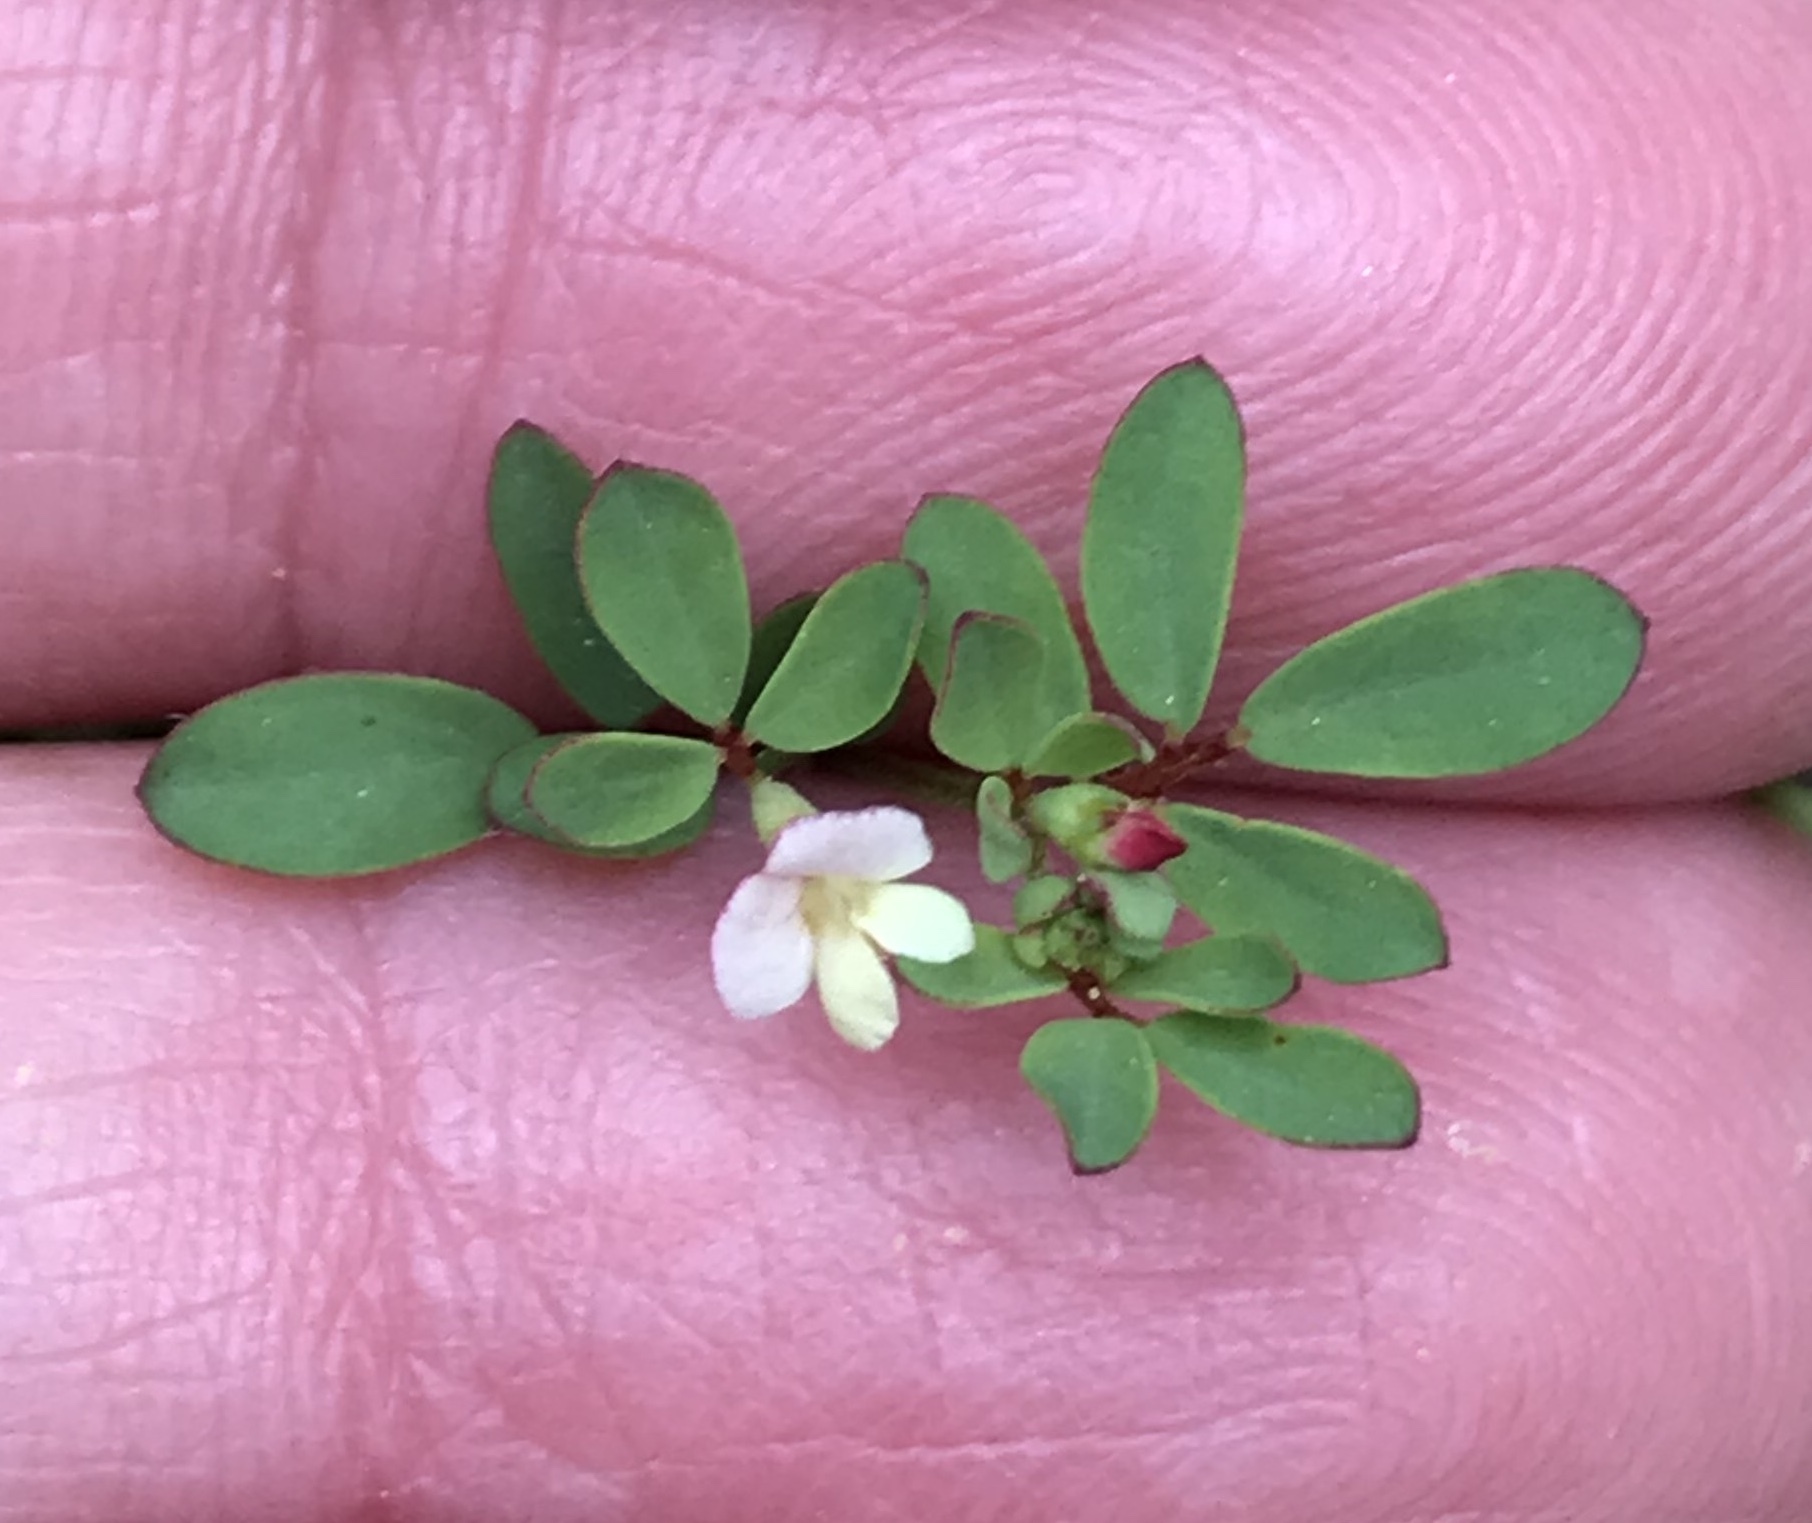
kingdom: Plantae
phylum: Tracheophyta
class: Magnoliopsida
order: Fabales
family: Fabaceae
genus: Acmispon
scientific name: Acmispon parviflorus
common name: Desert deer-vetch
